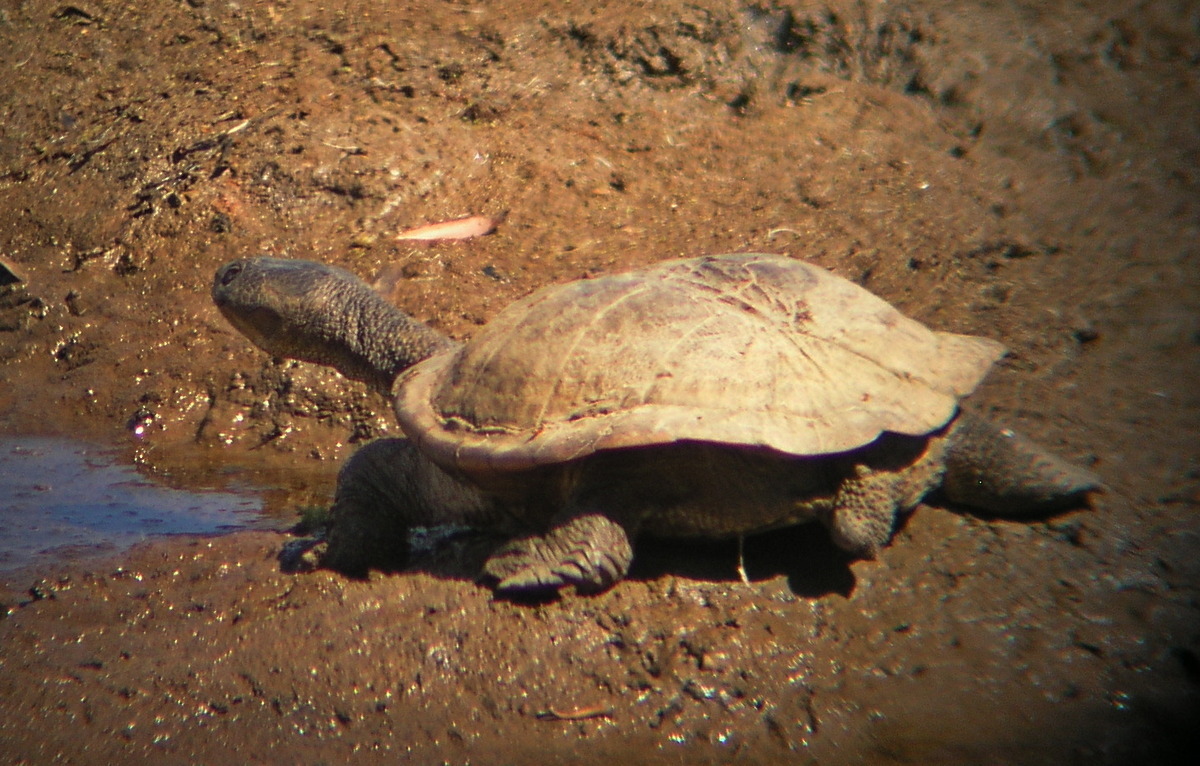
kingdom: Animalia
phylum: Chordata
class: Testudines
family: Chelidae
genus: Emydura
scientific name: Emydura macquarii
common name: Murray river turtle
